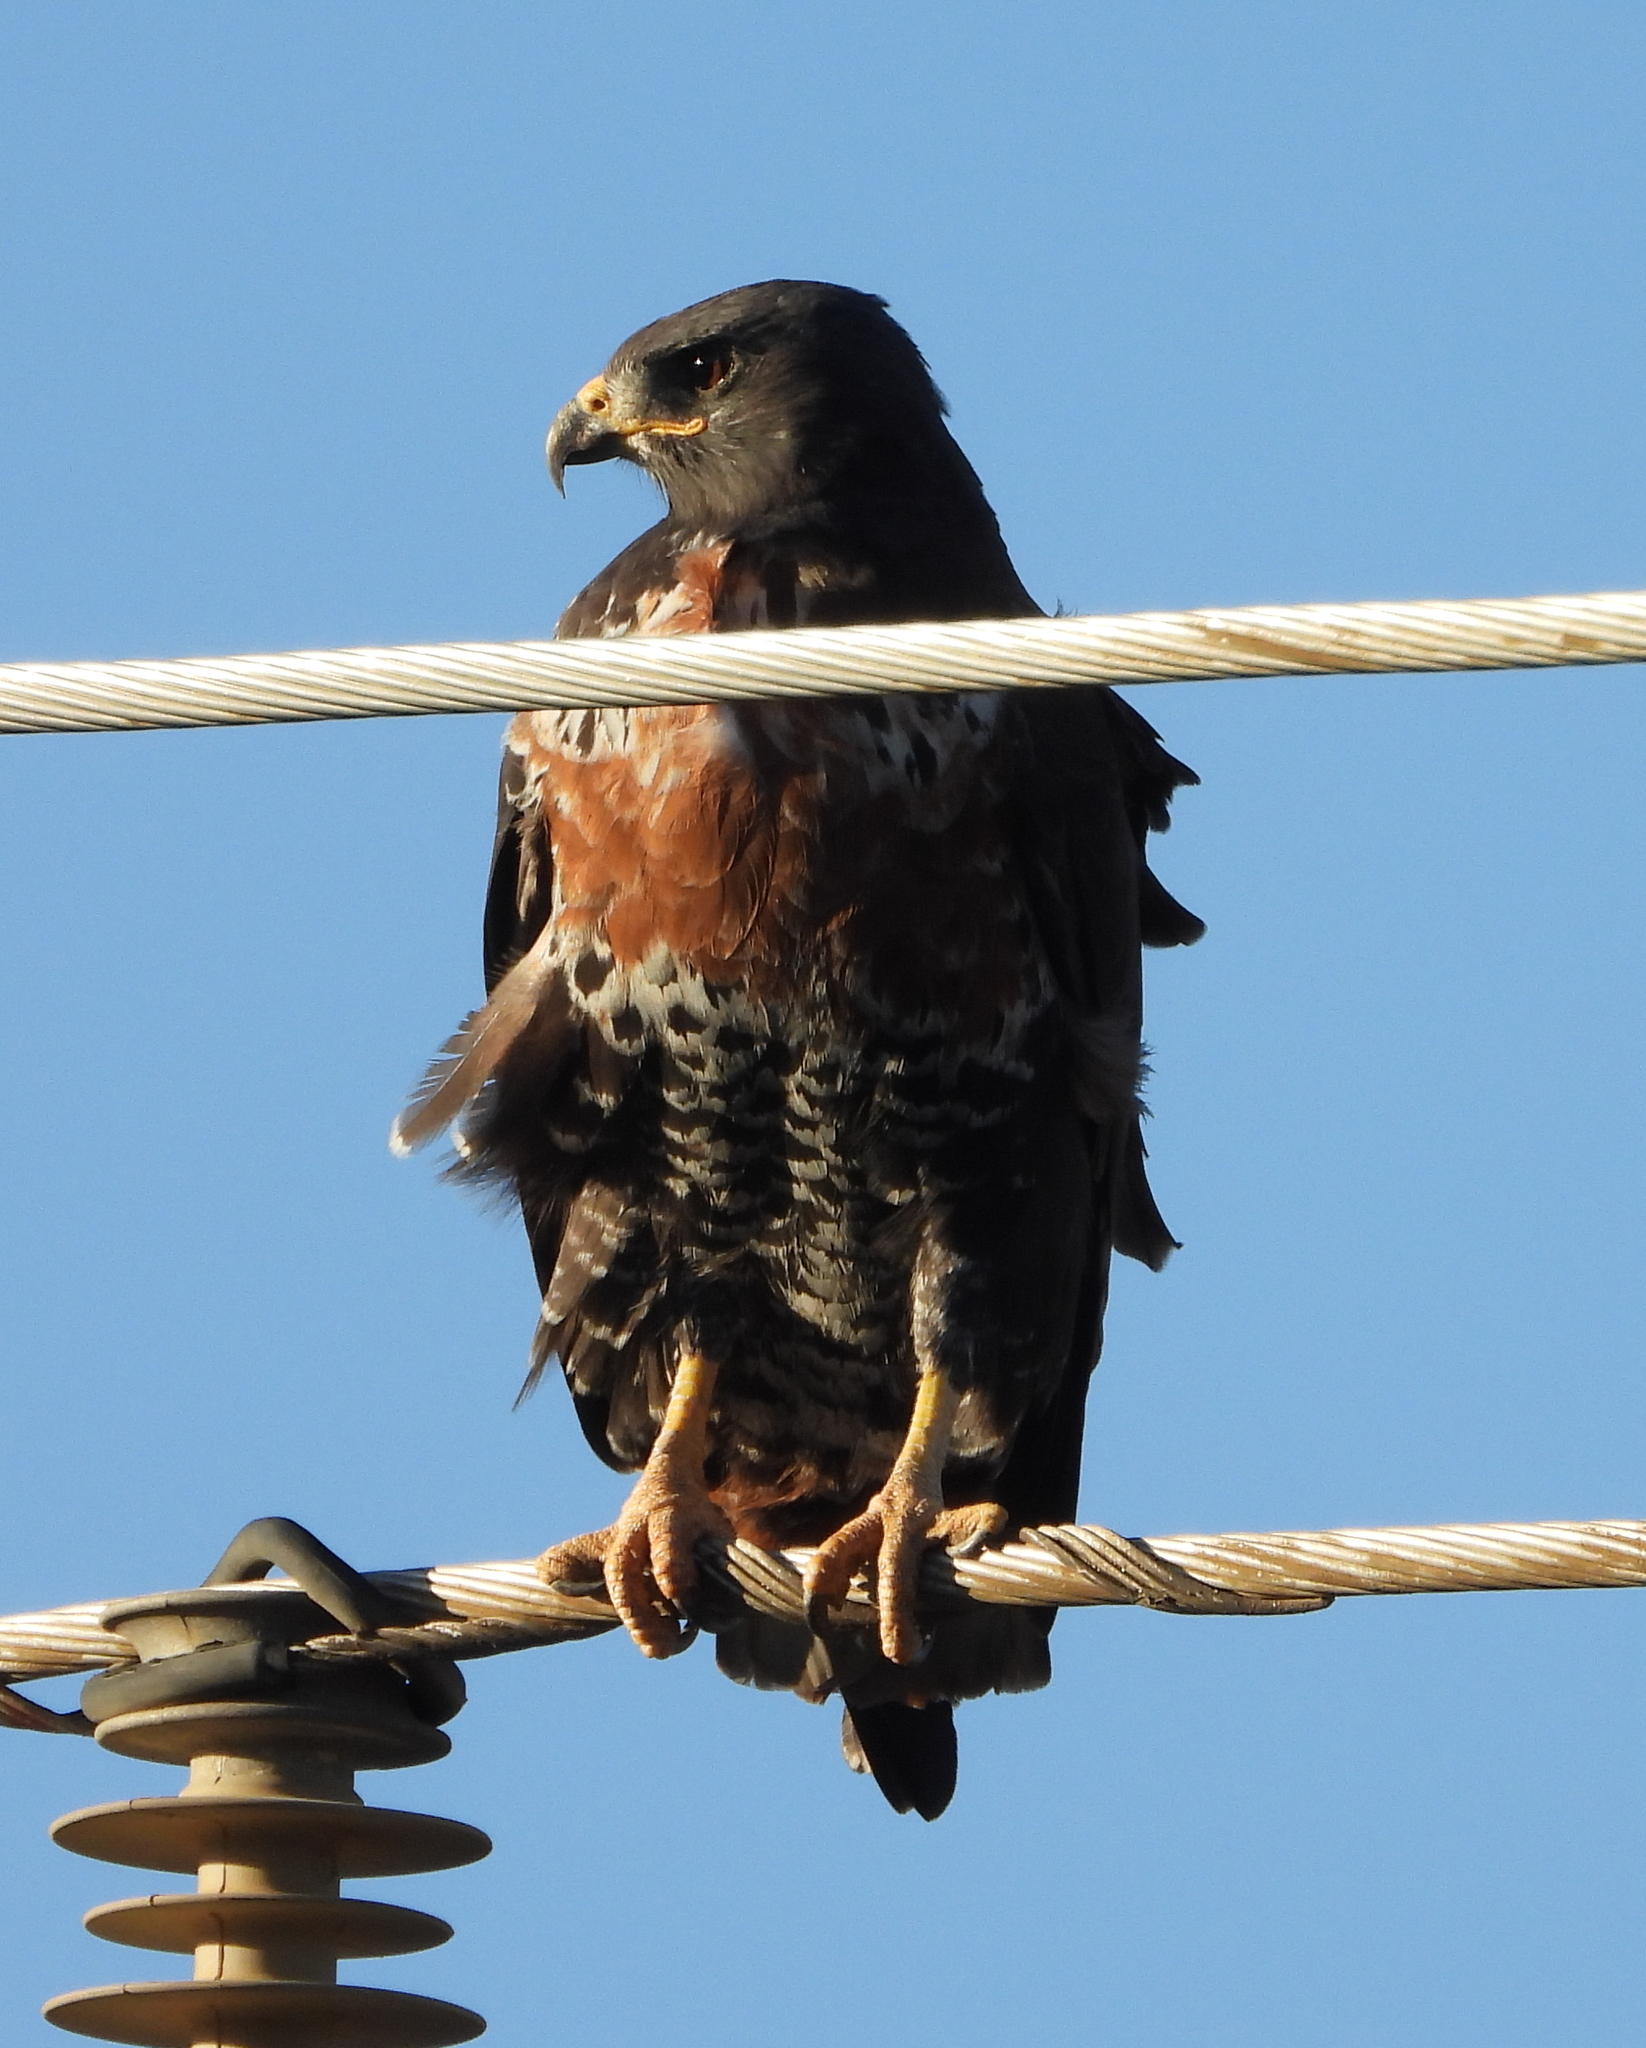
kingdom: Animalia
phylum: Chordata
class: Aves
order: Accipitriformes
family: Accipitridae
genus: Buteo
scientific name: Buteo rufofuscus
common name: Jackal buzzard
